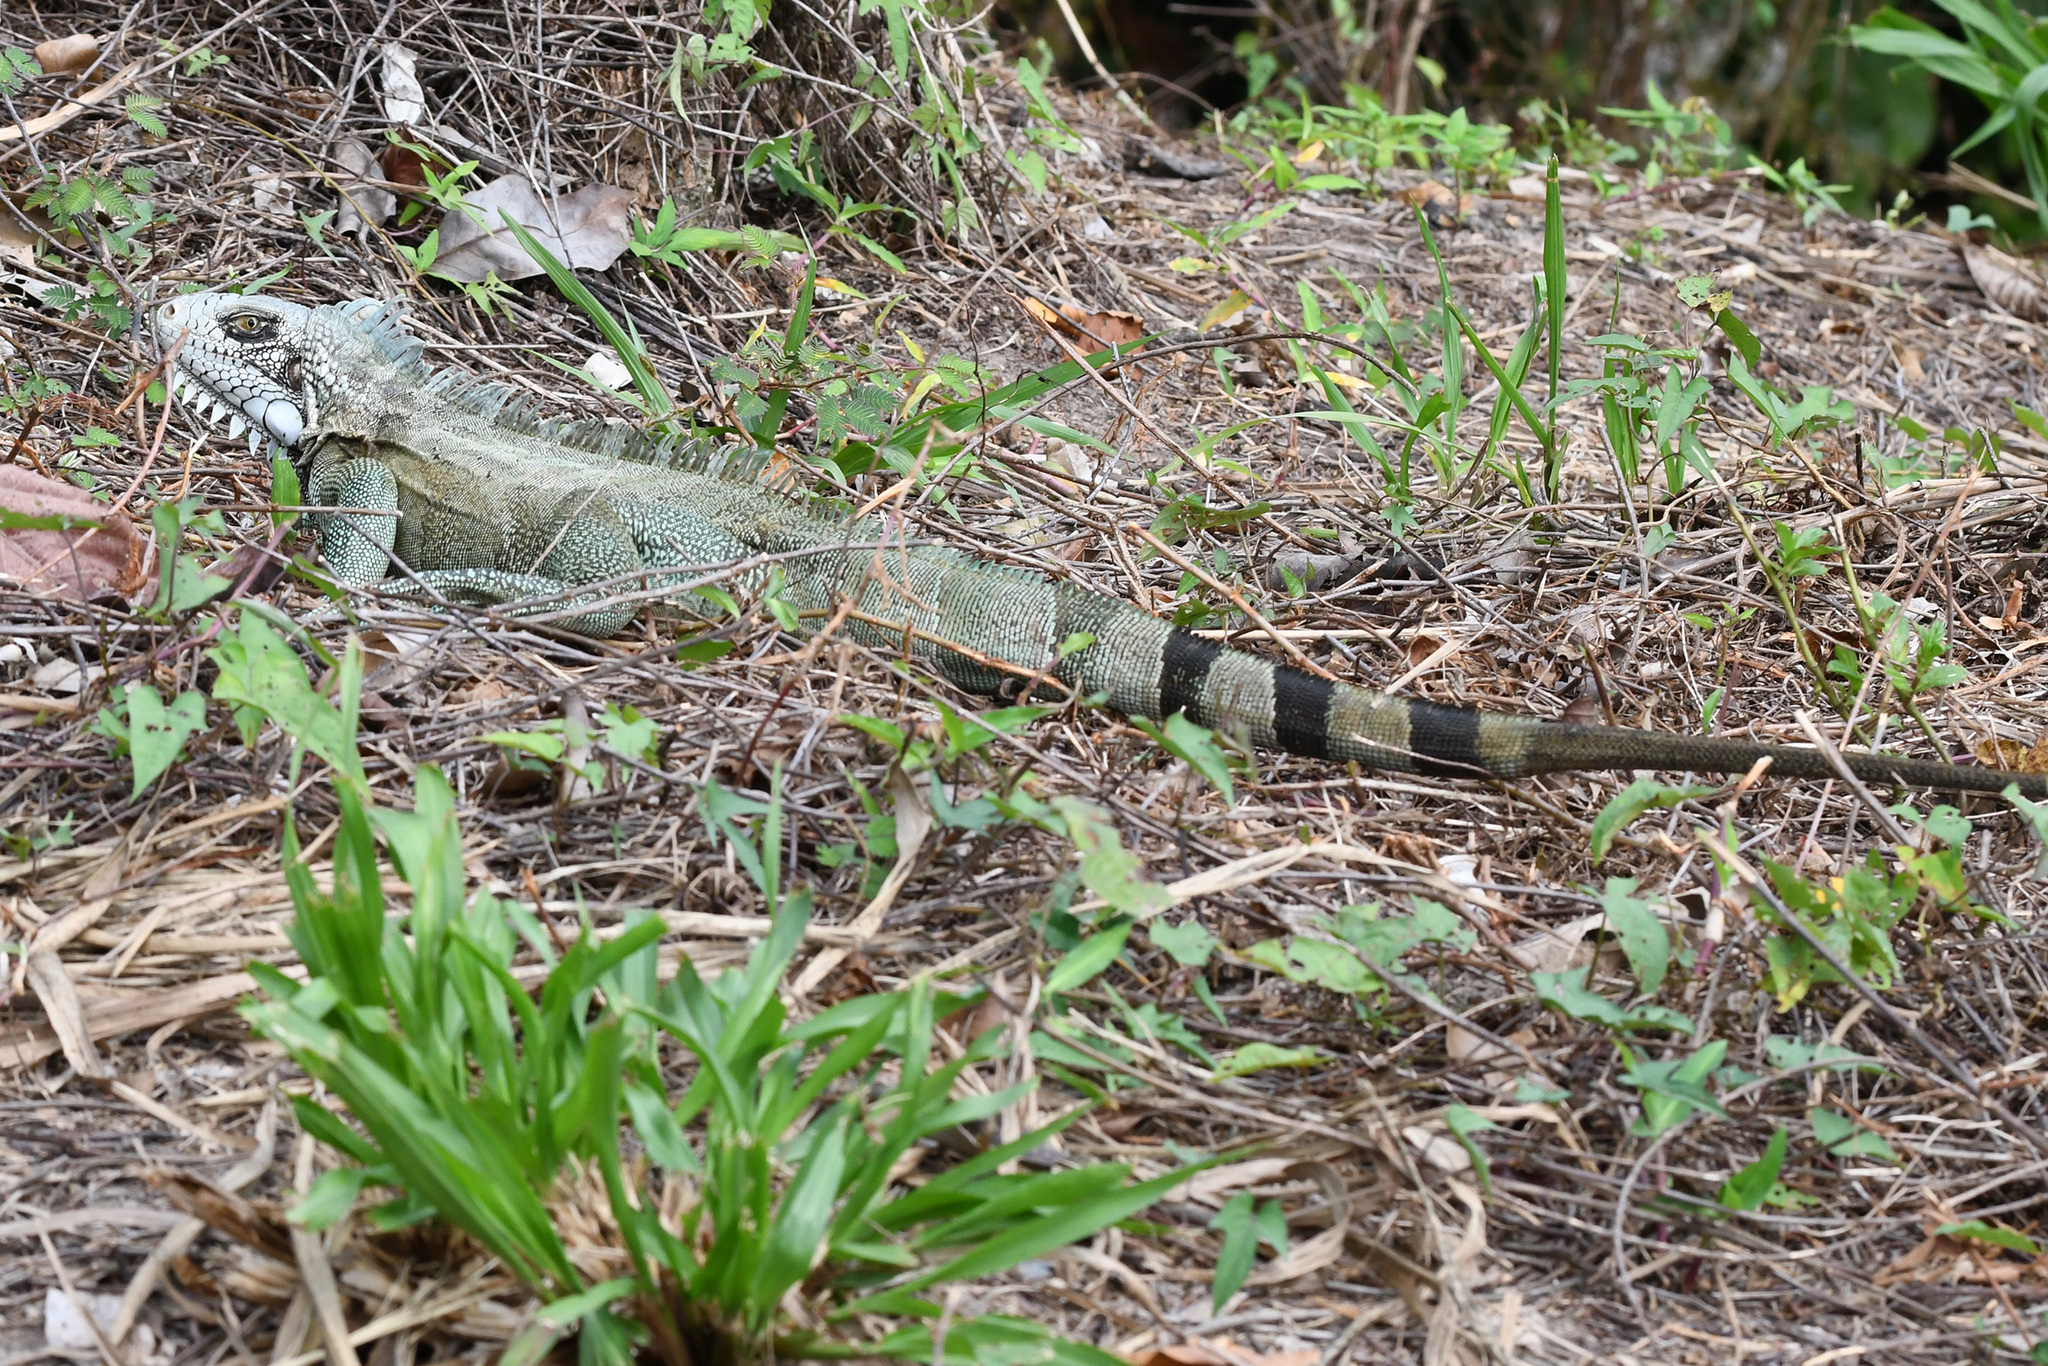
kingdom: Animalia
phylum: Chordata
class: Squamata
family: Iguanidae
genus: Iguana
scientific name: Iguana iguana
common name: Green iguana
